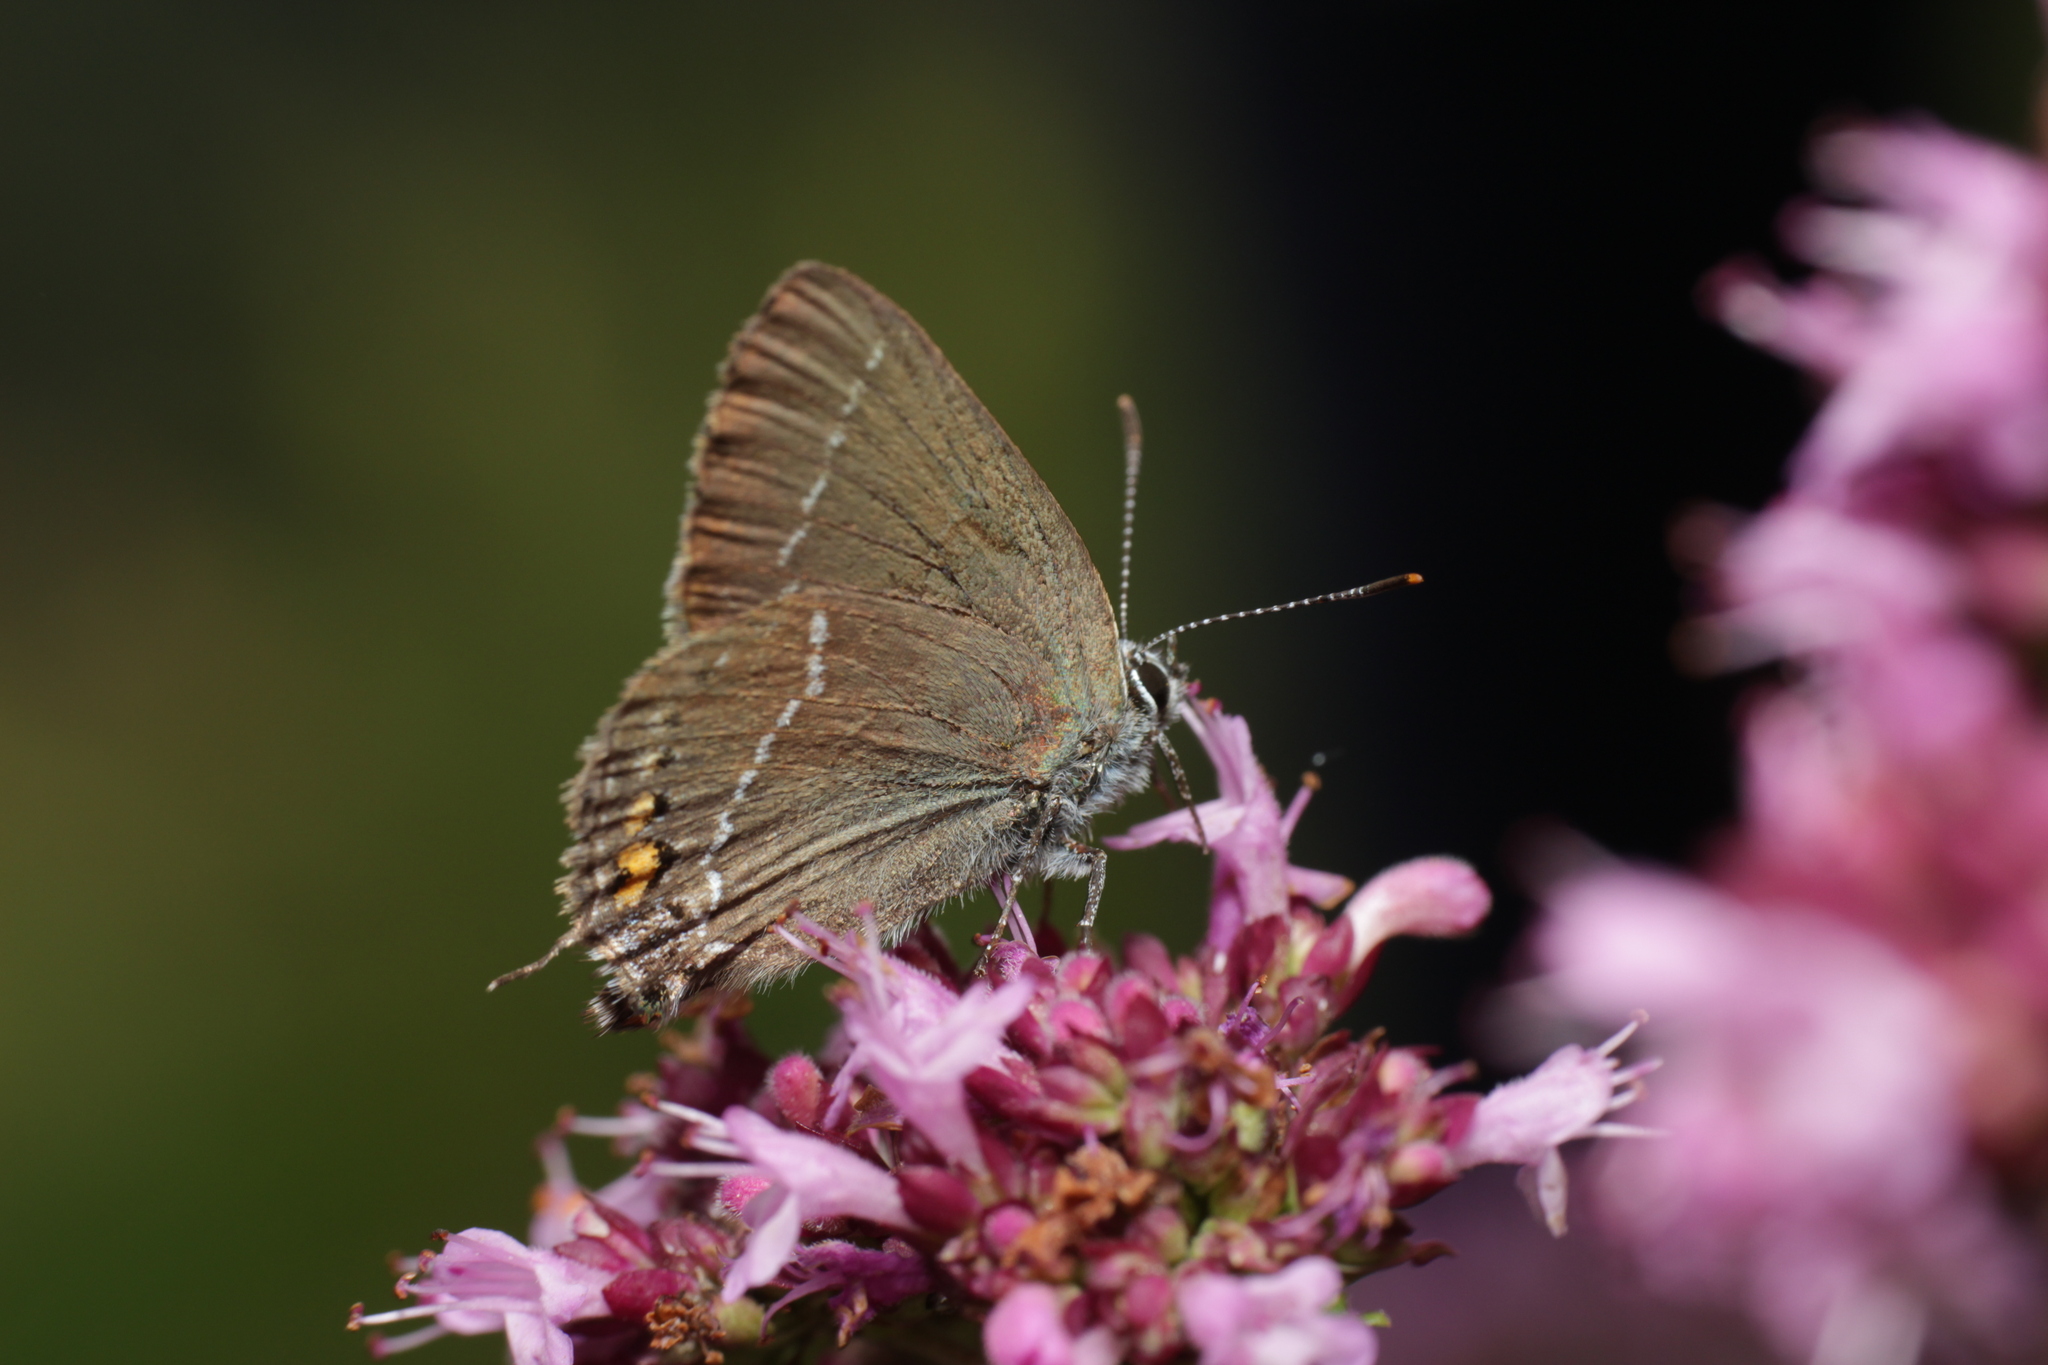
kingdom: Animalia
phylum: Arthropoda
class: Insecta
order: Lepidoptera
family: Lycaenidae
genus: Tuttiola
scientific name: Tuttiola spini
